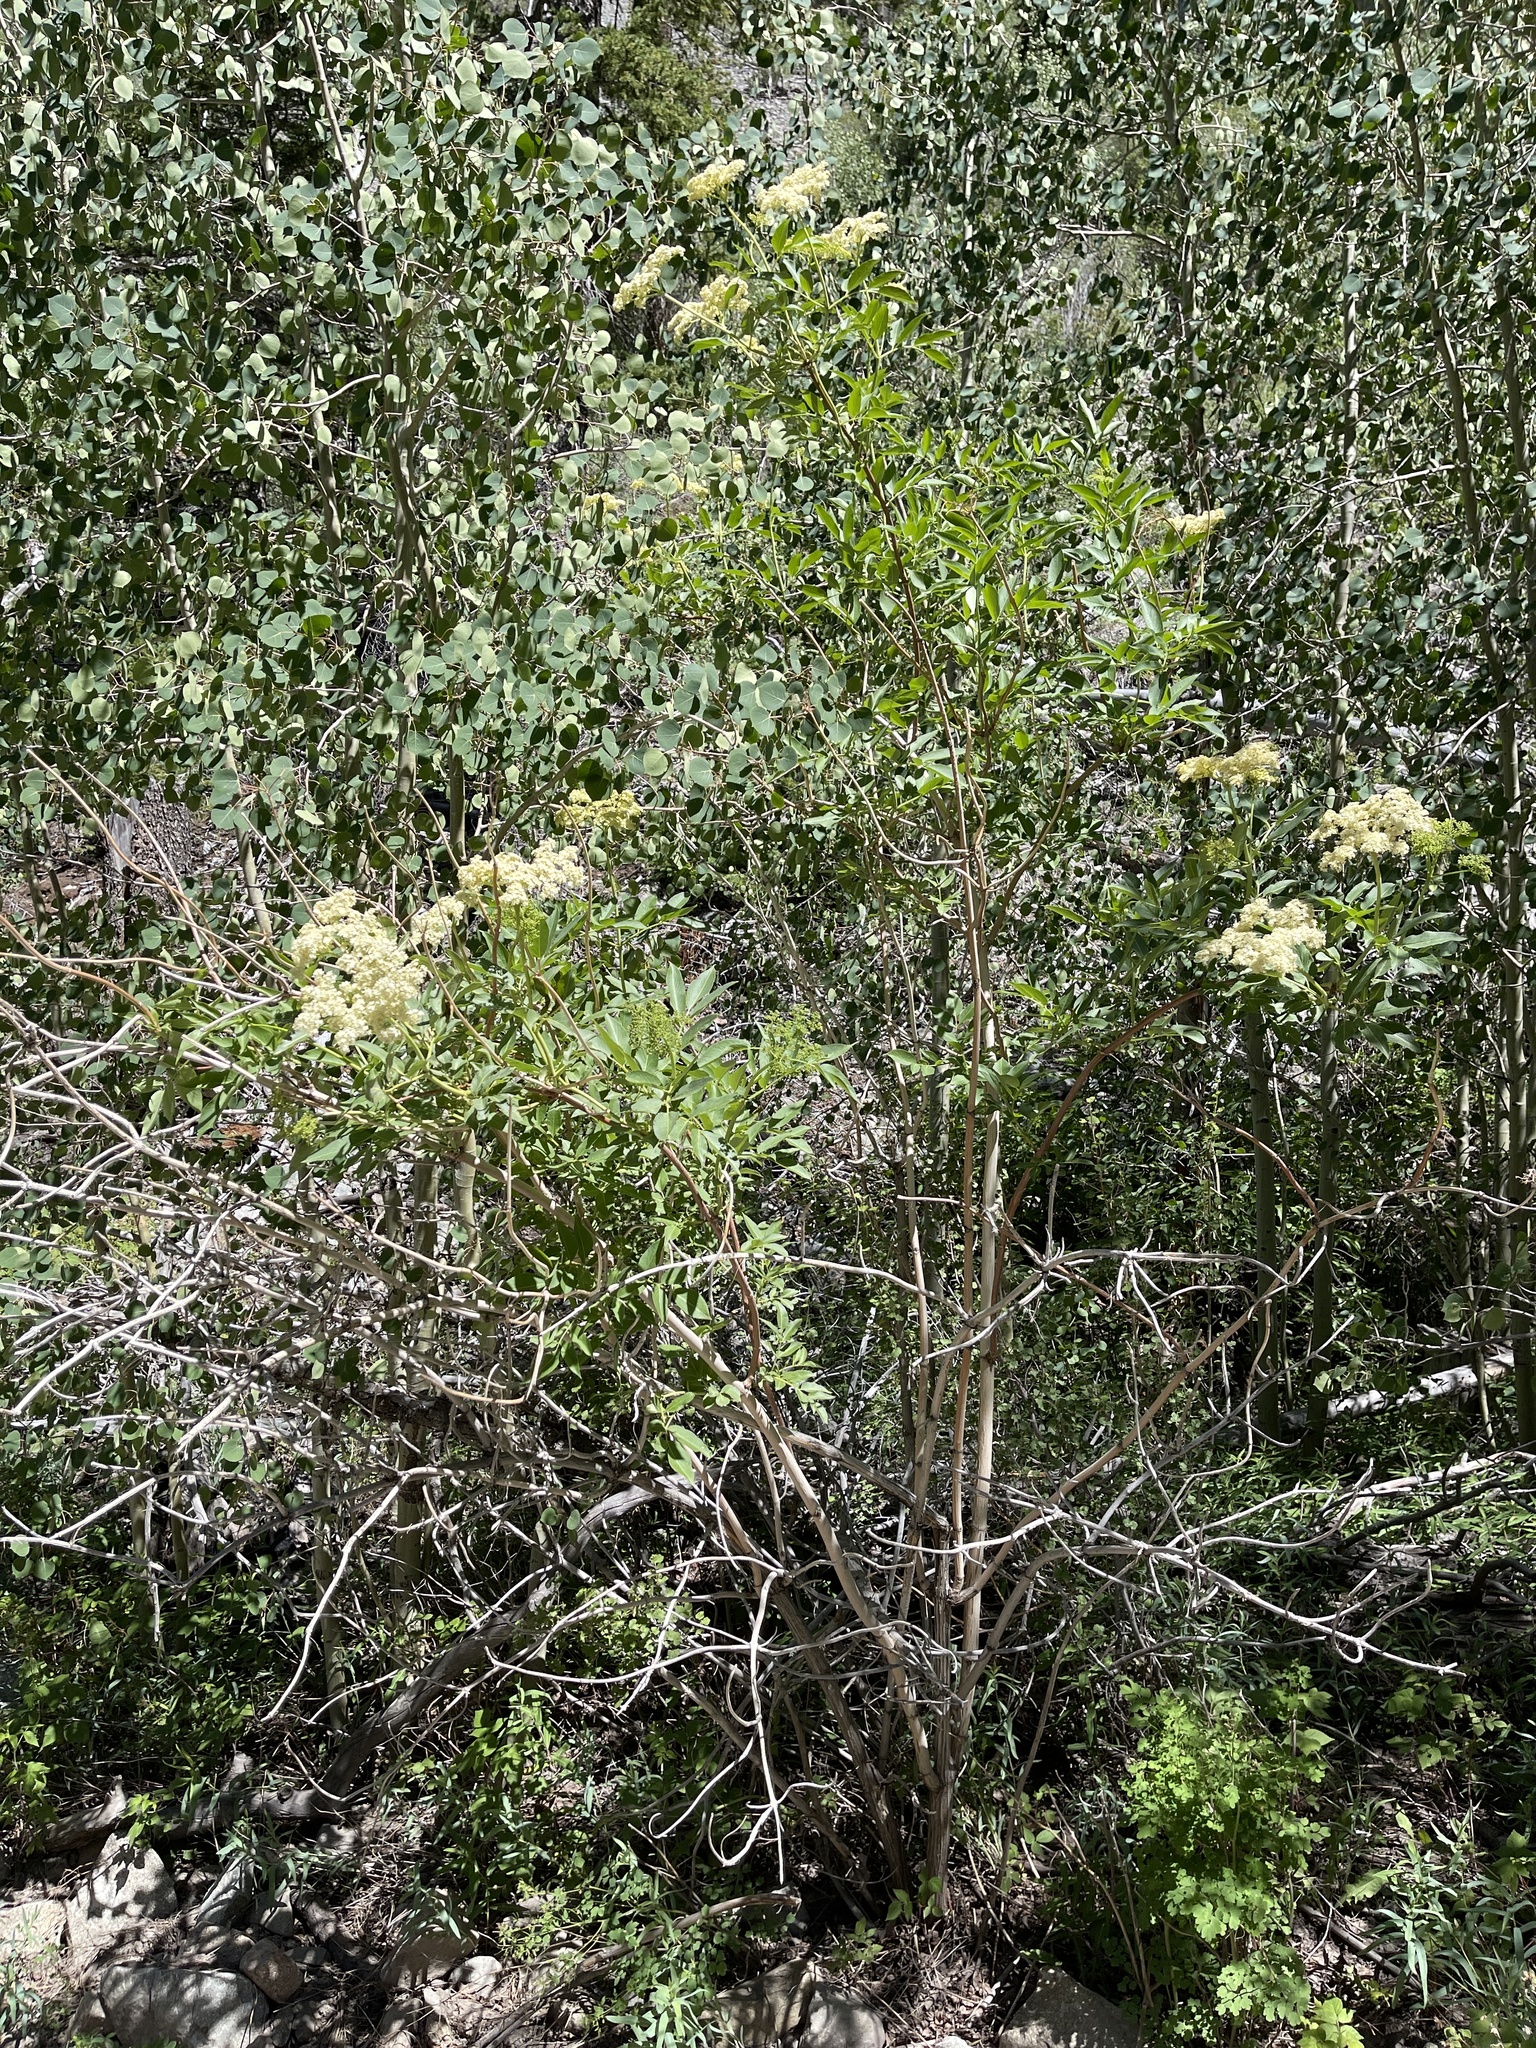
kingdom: Plantae
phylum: Tracheophyta
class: Magnoliopsida
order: Dipsacales
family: Viburnaceae
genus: Sambucus
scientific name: Sambucus cerulea
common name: Blue elder
